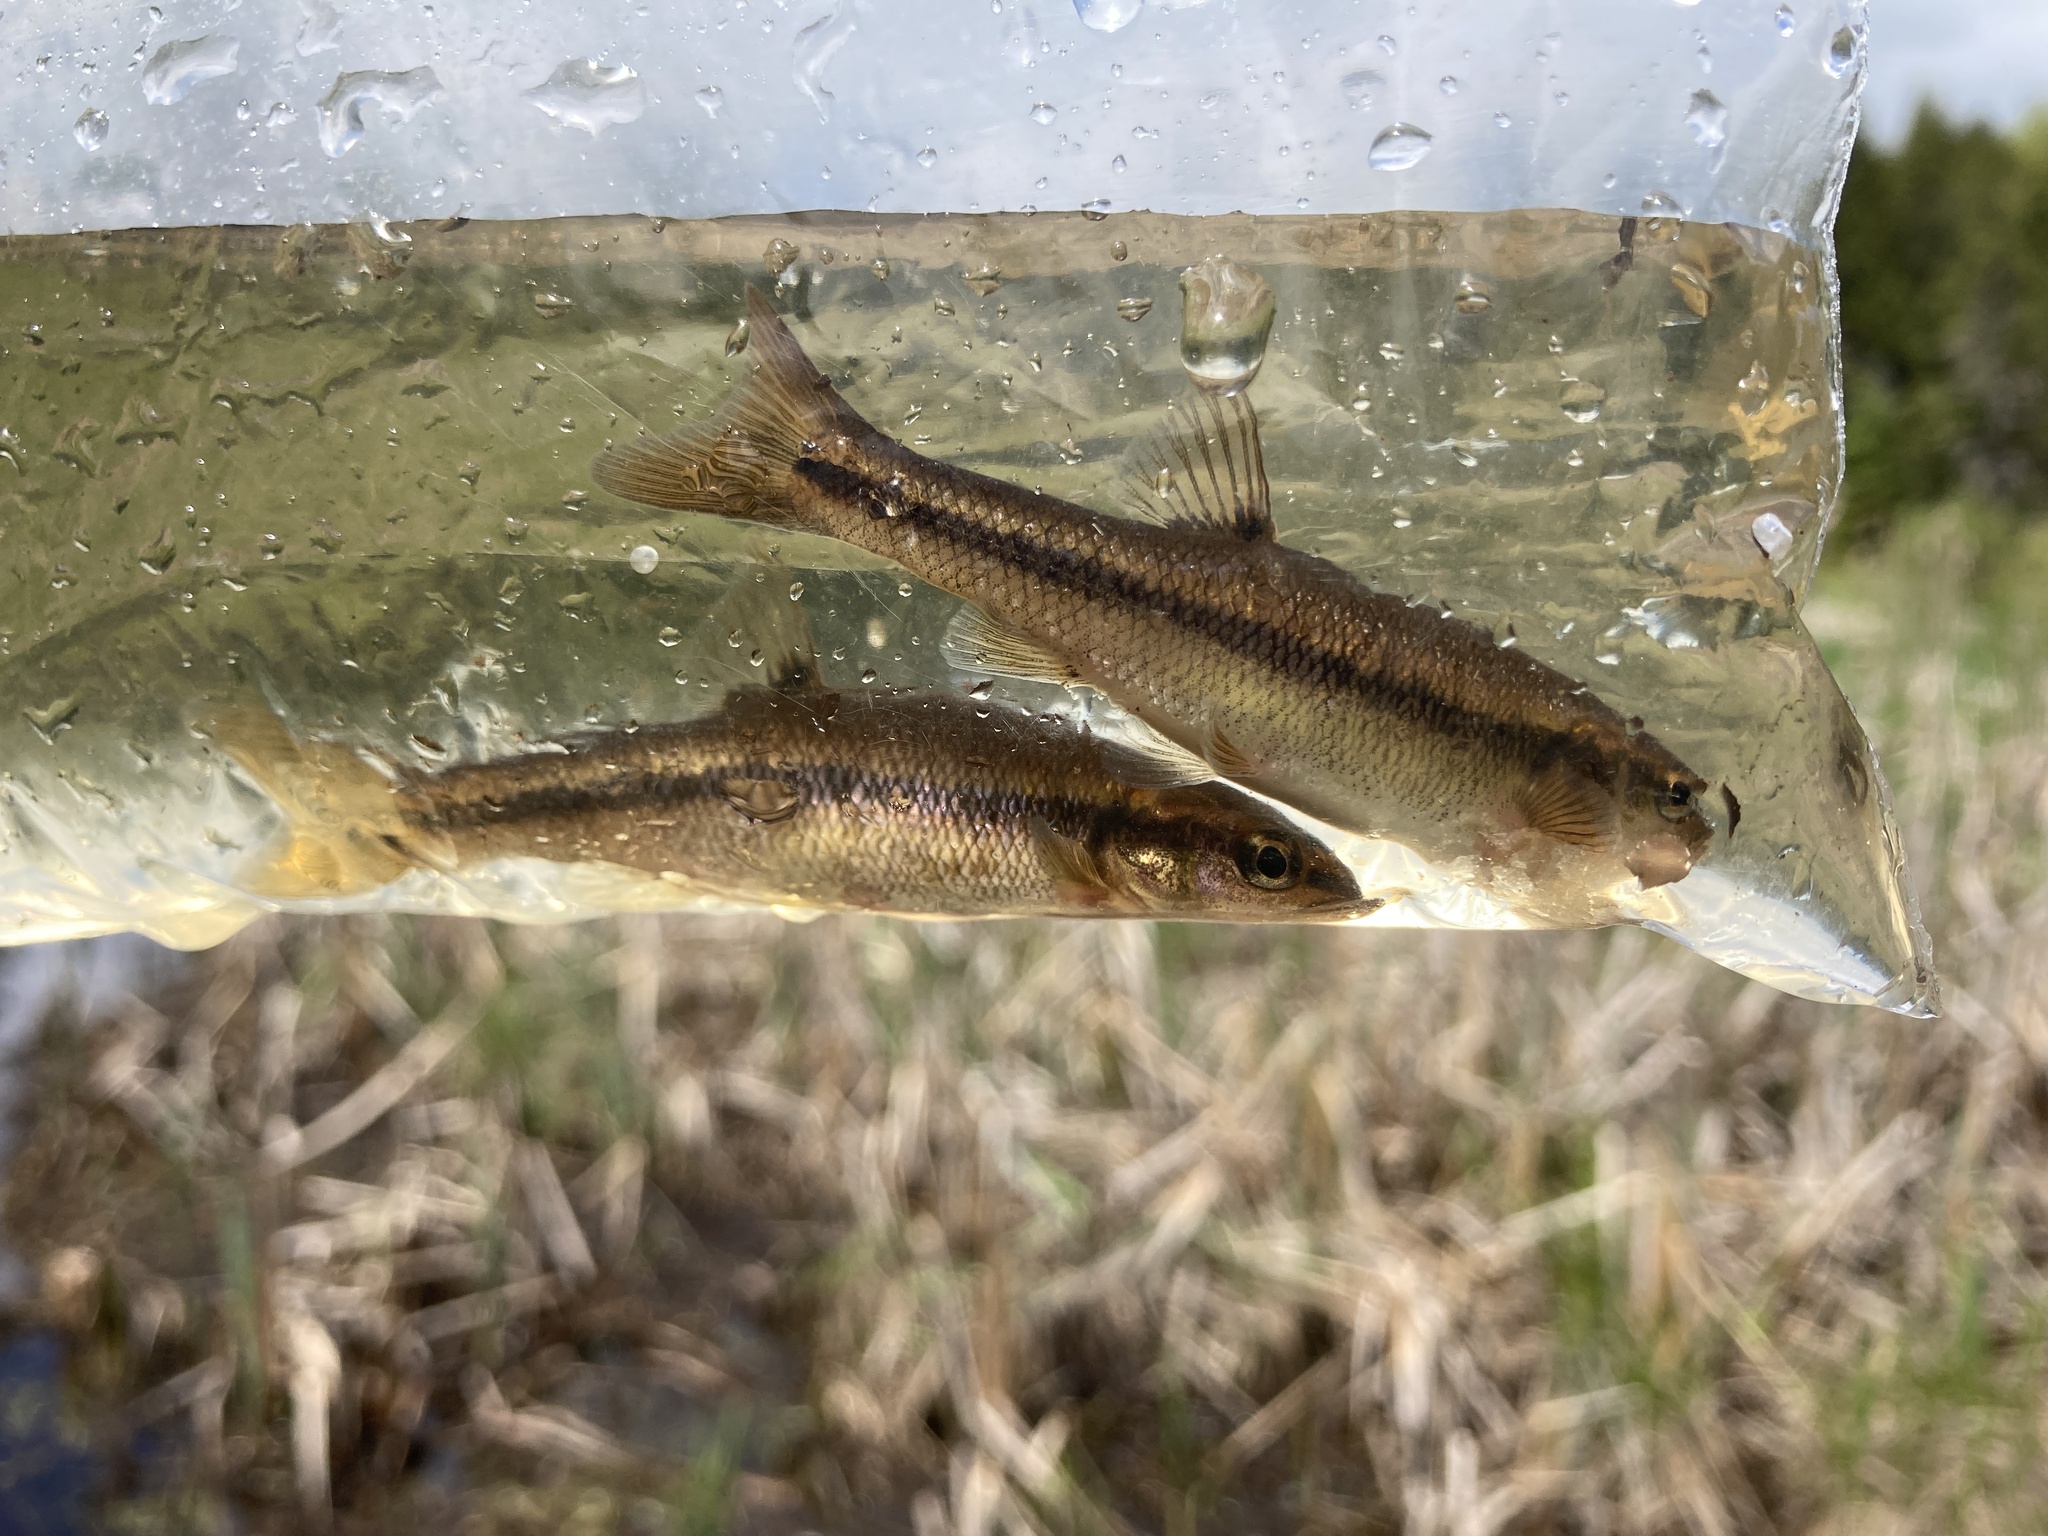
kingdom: Animalia
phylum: Chordata
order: Cypriniformes
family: Cyprinidae
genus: Semotilus
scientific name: Semotilus atromaculatus
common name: Creek chub
